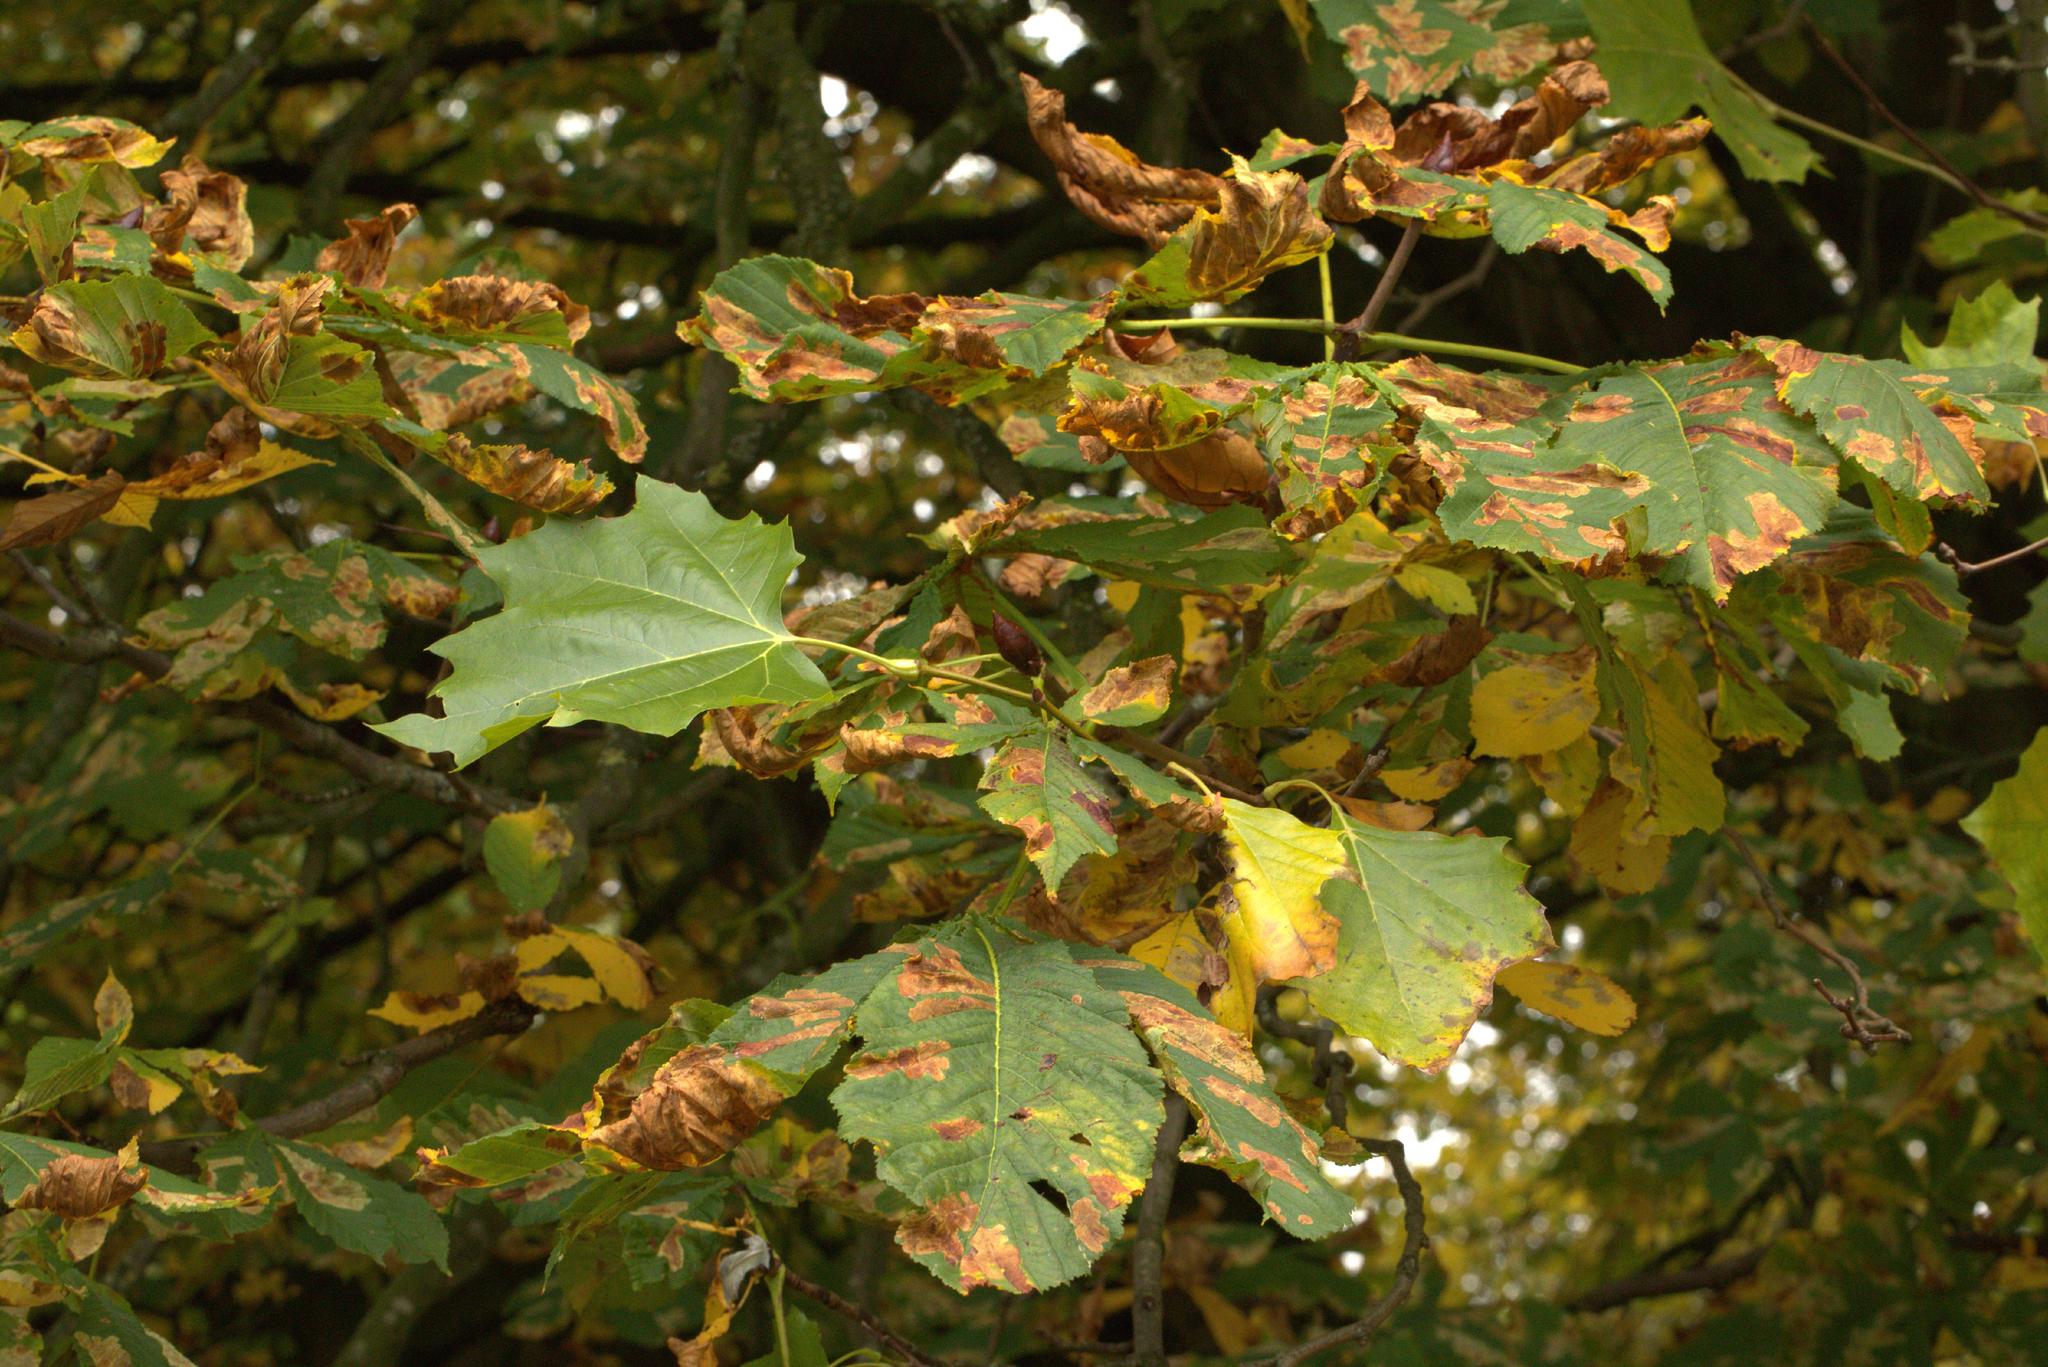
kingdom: Animalia
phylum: Arthropoda
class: Insecta
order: Lepidoptera
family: Gracillariidae
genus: Cameraria
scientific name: Cameraria ohridella
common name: Horse-chestnut leaf-miner
